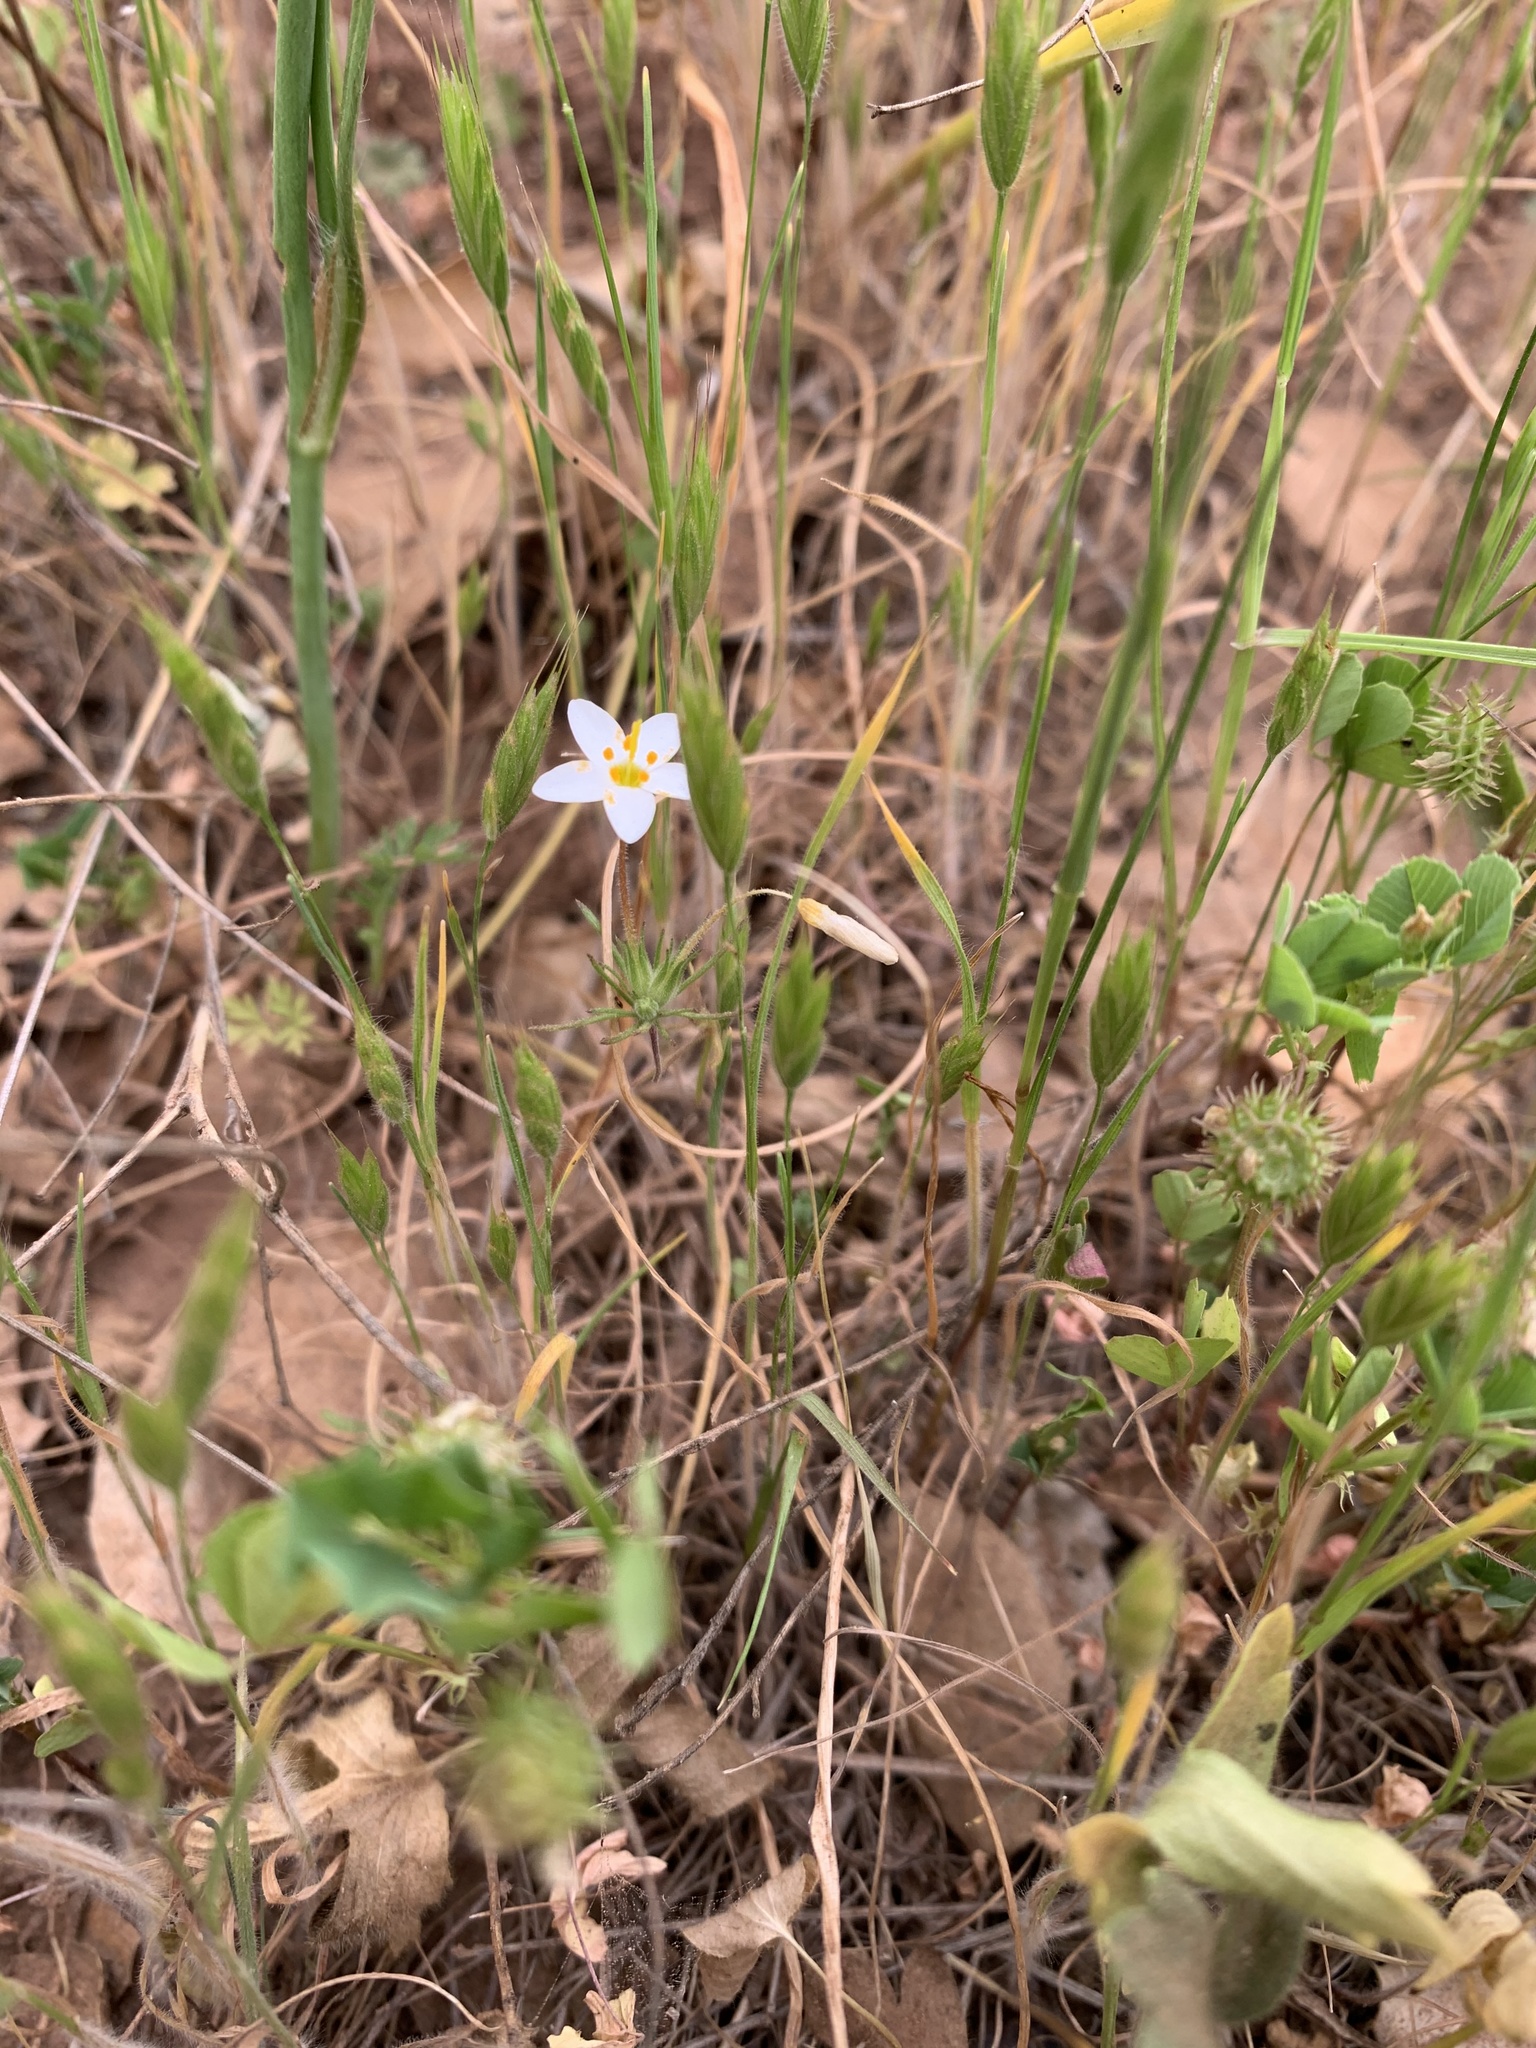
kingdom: Plantae
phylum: Tracheophyta
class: Magnoliopsida
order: Ericales
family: Polemoniaceae
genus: Leptosiphon
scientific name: Leptosiphon parviflorus
